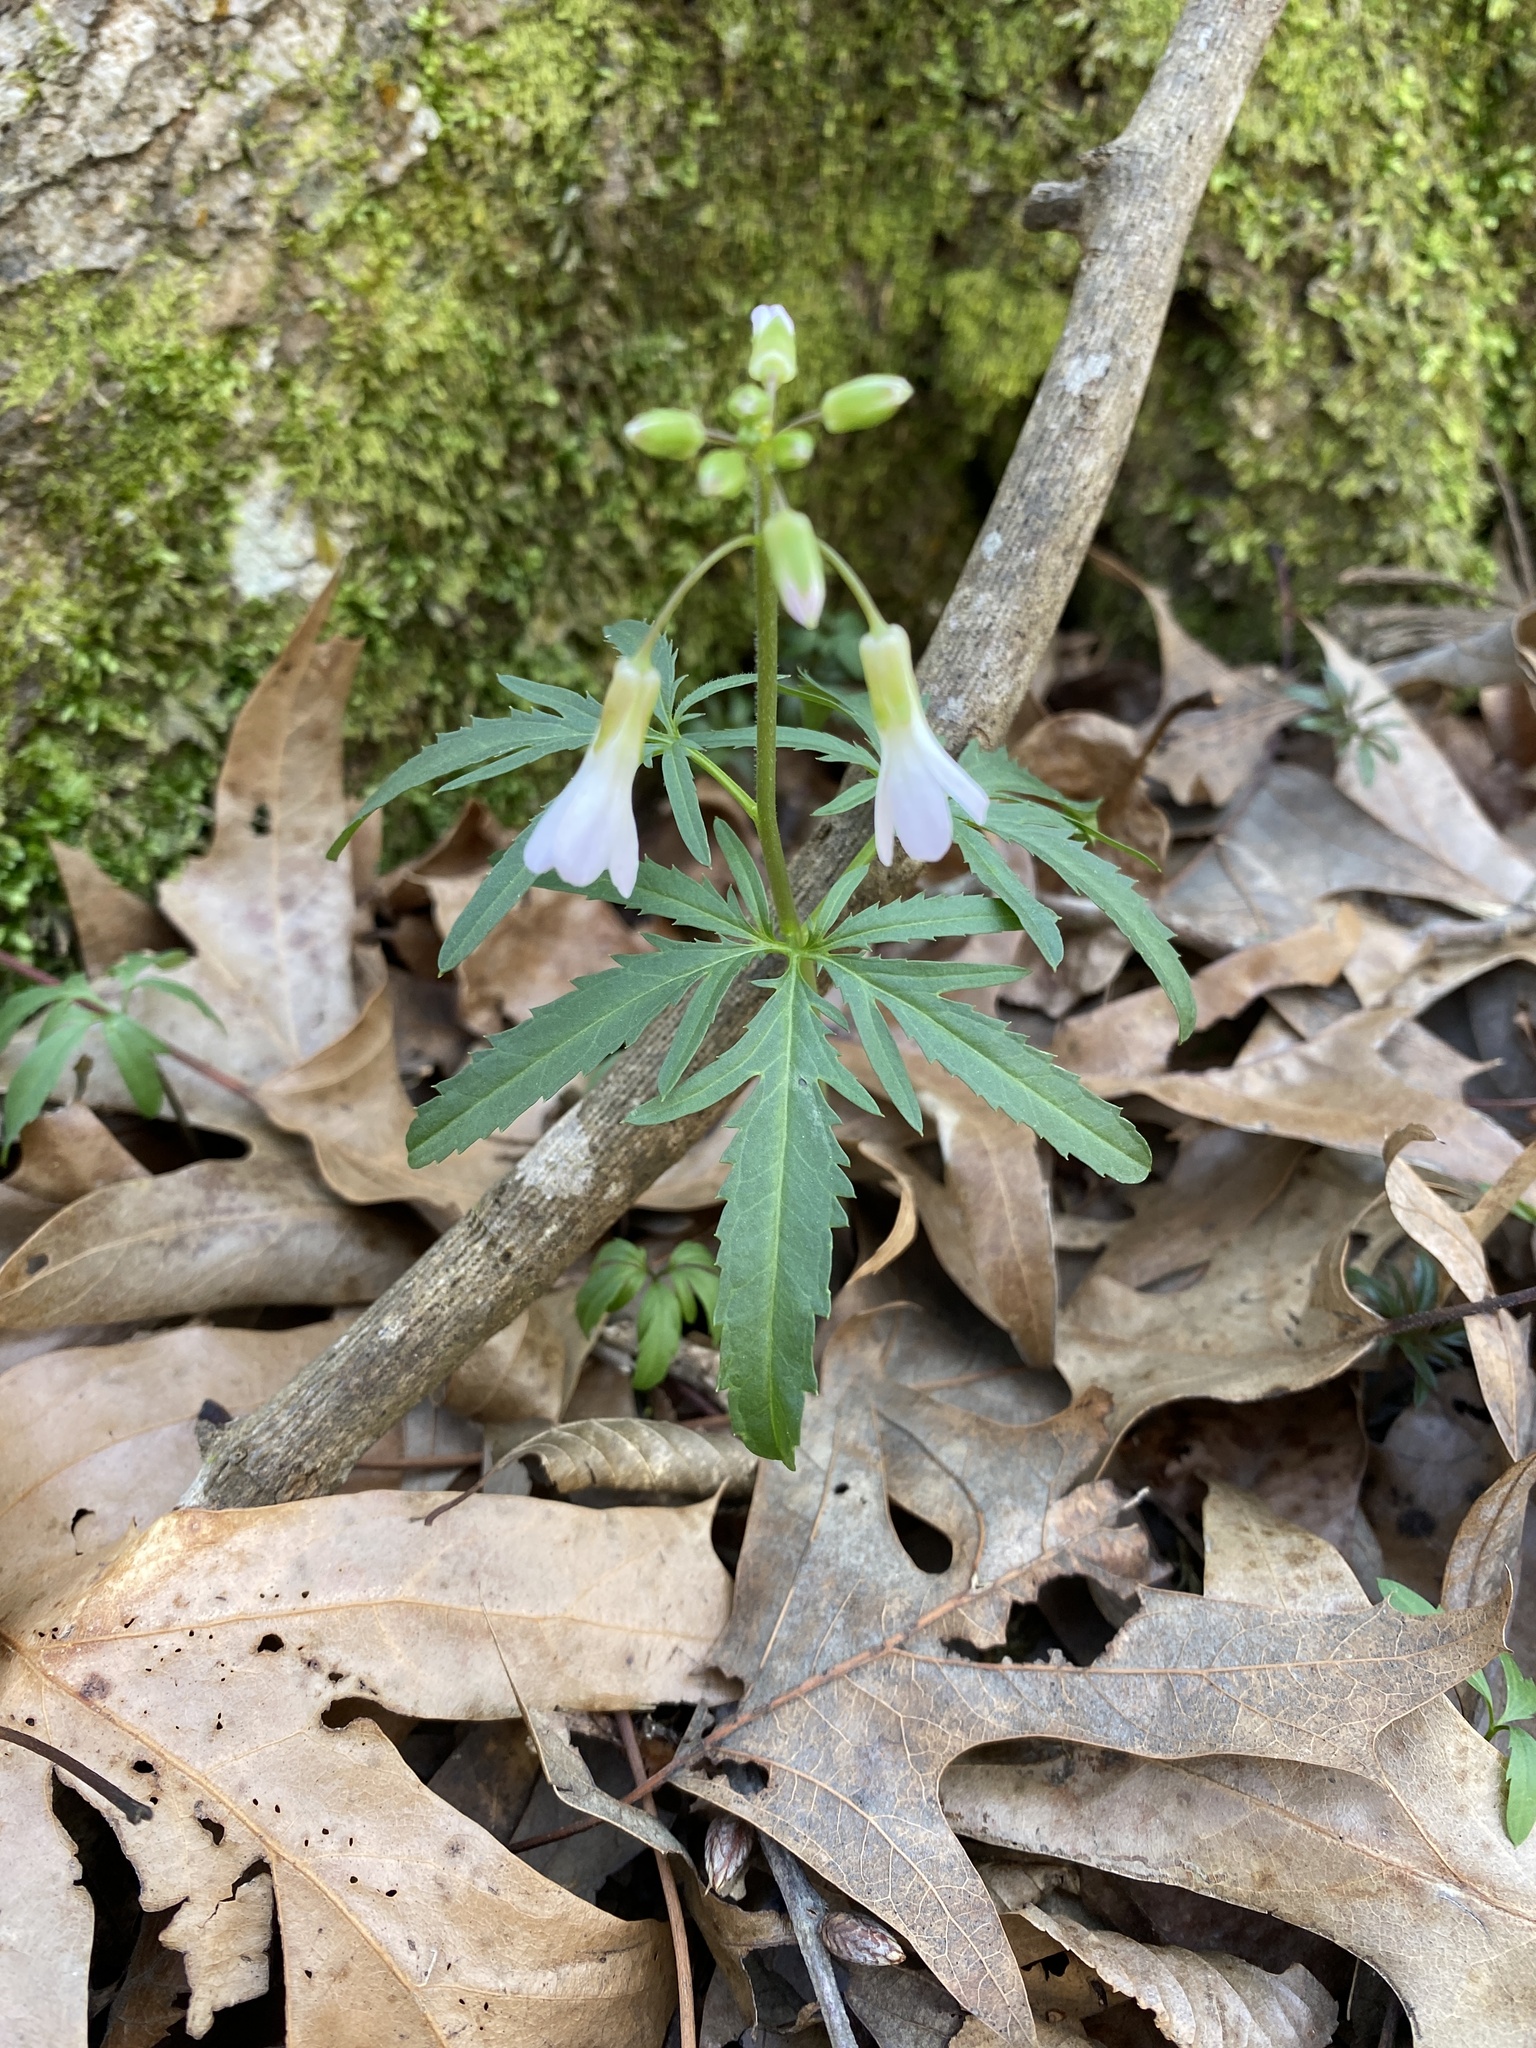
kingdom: Plantae
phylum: Tracheophyta
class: Magnoliopsida
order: Brassicales
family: Brassicaceae
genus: Cardamine
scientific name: Cardamine concatenata
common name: Cut-leaf toothcup
